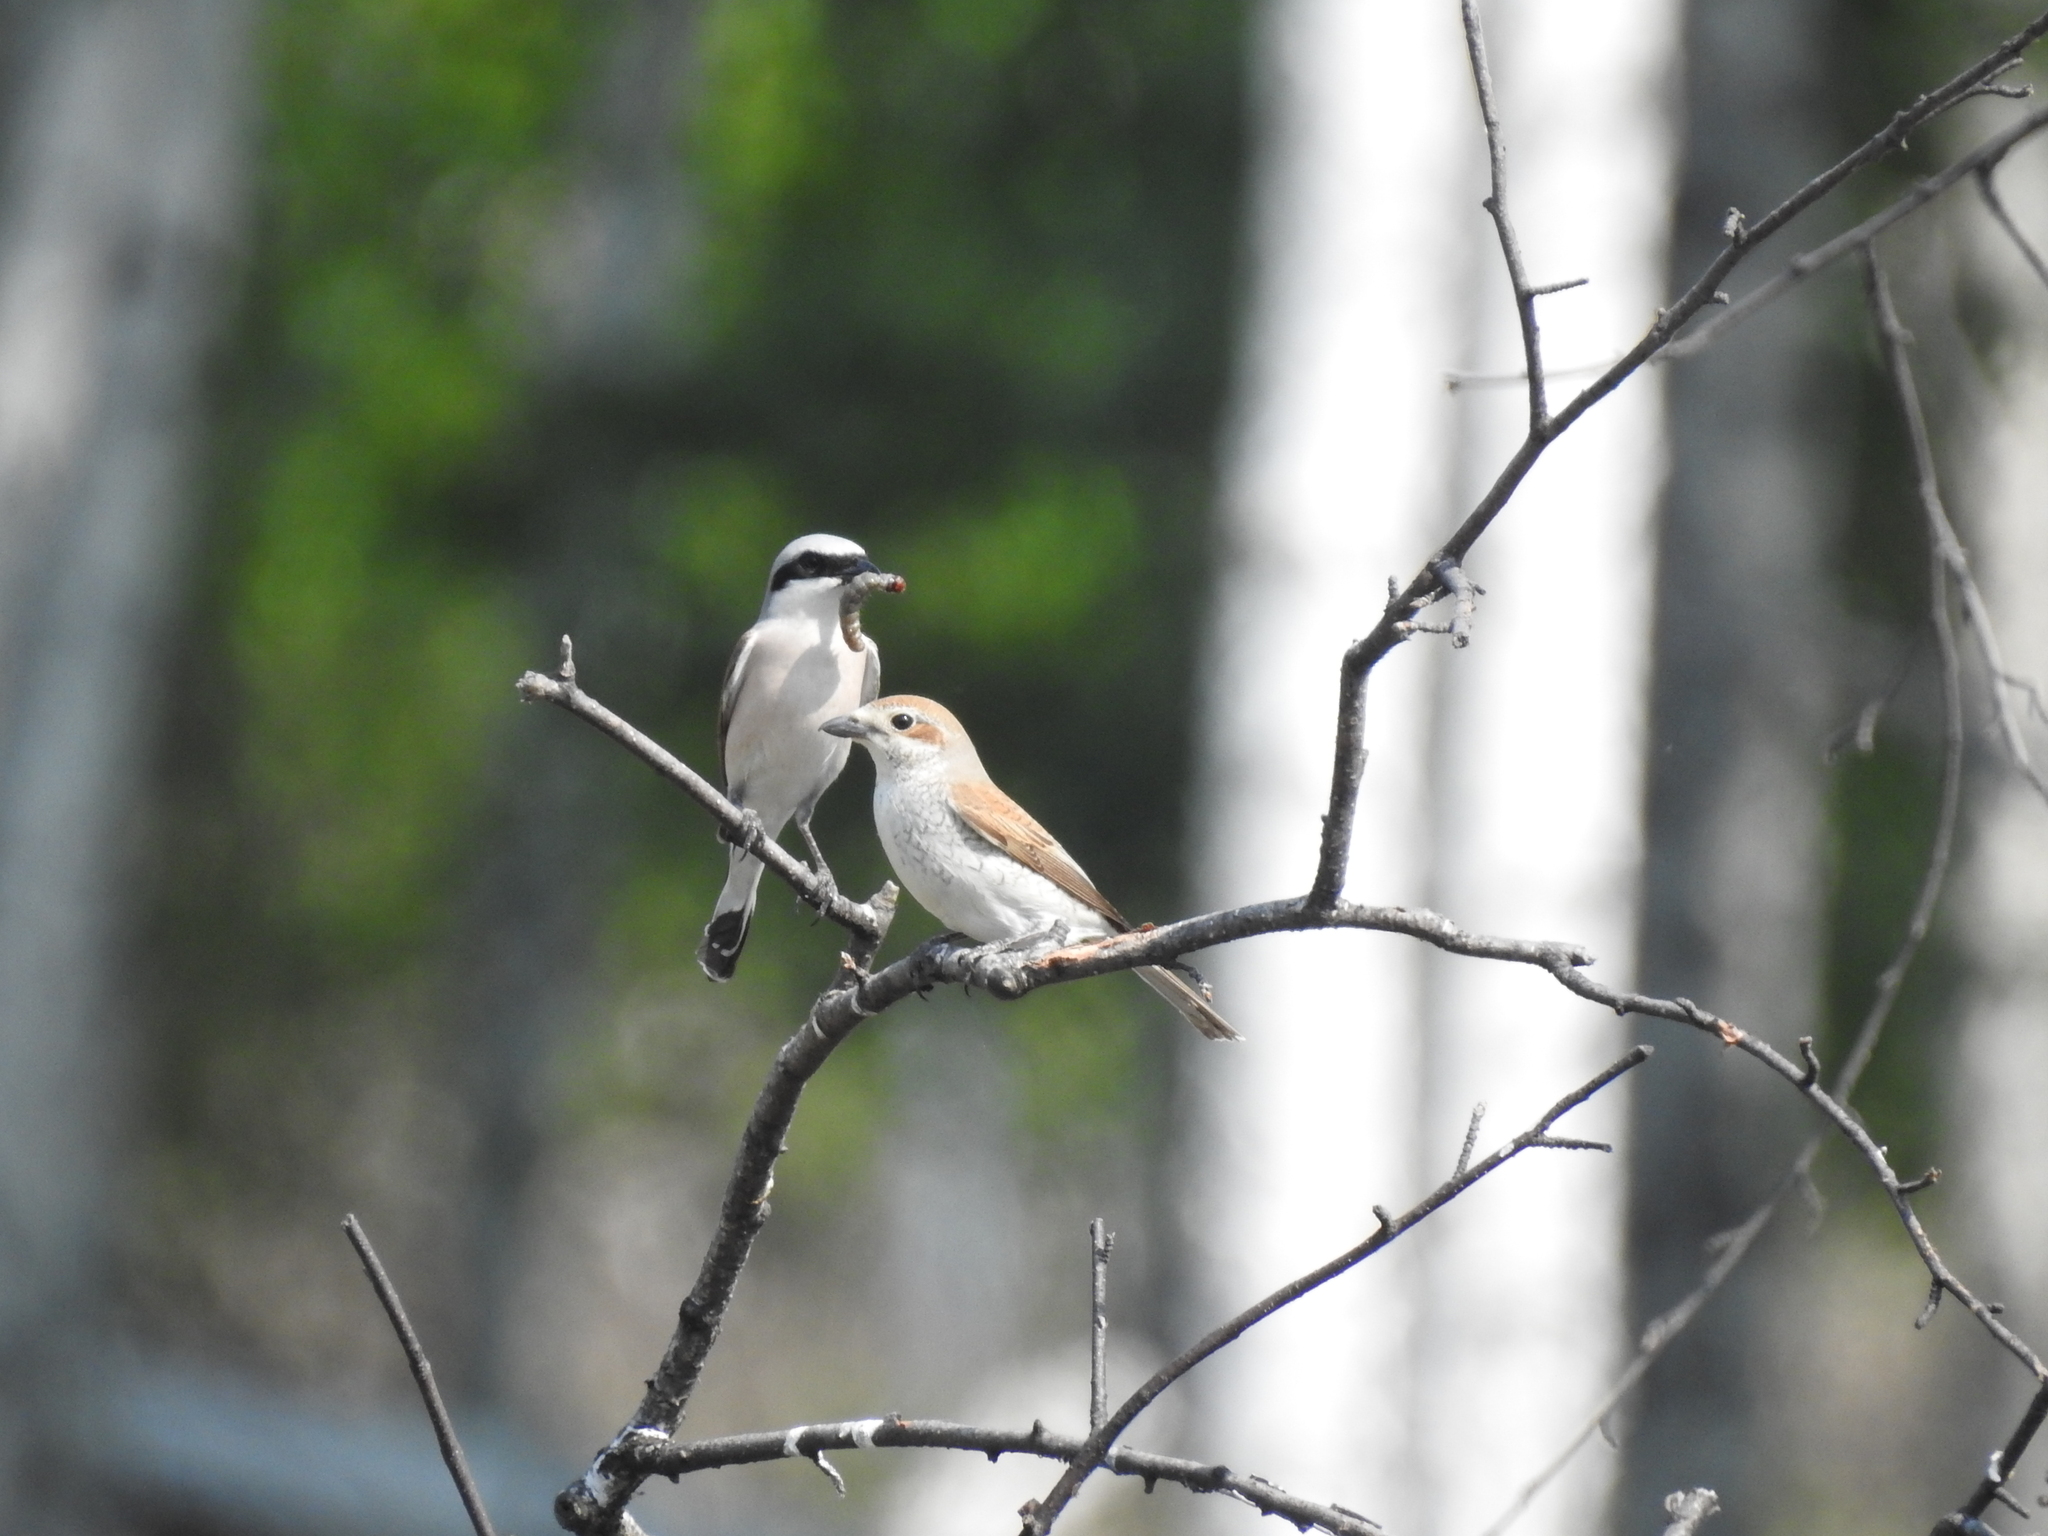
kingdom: Animalia
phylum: Chordata
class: Aves
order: Passeriformes
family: Laniidae
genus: Lanius
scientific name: Lanius collurio
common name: Red-backed shrike
